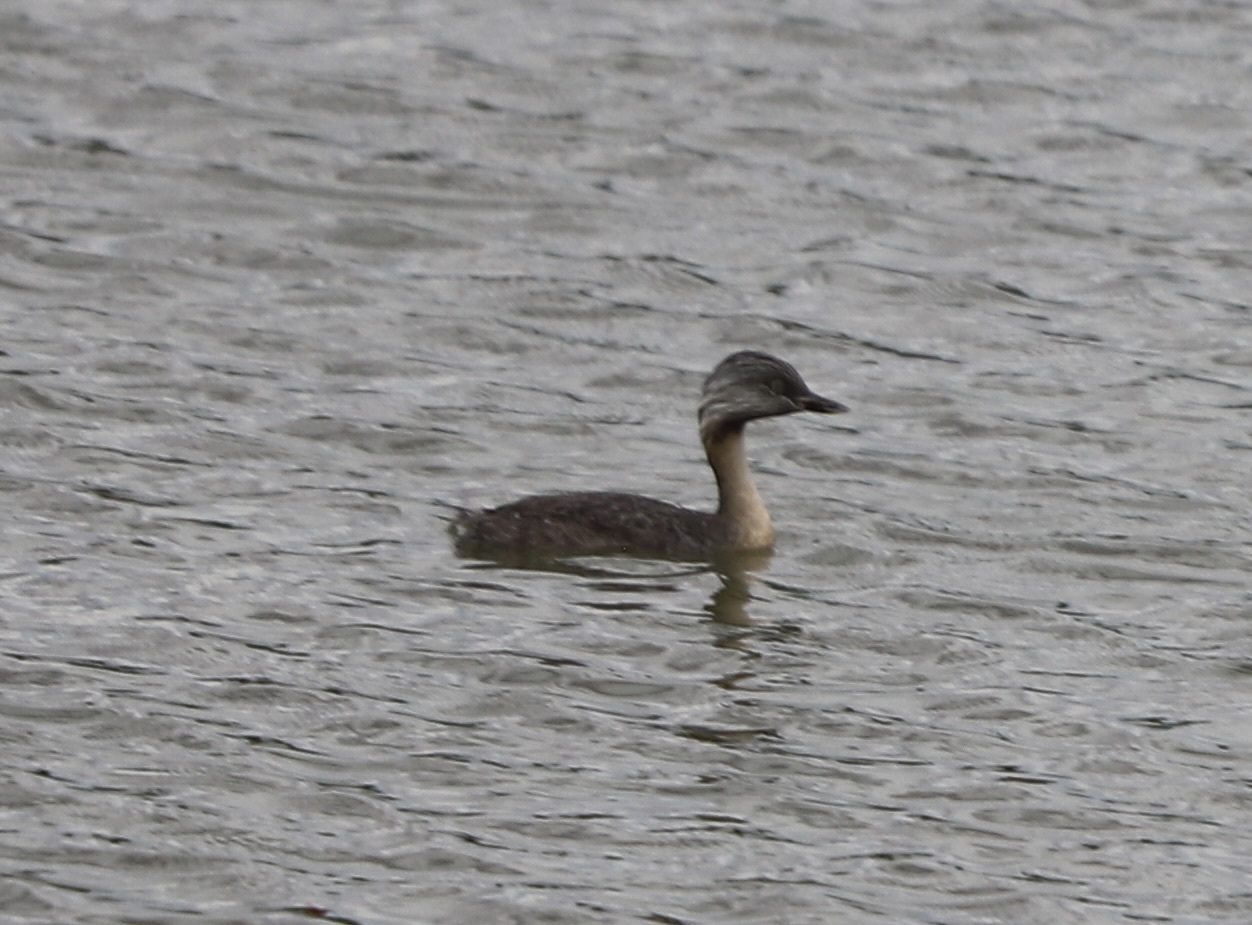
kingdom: Animalia
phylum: Chordata
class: Aves
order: Podicipediformes
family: Podicipedidae
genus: Poliocephalus
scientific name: Poliocephalus poliocephalus
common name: Hoary-headed grebe
